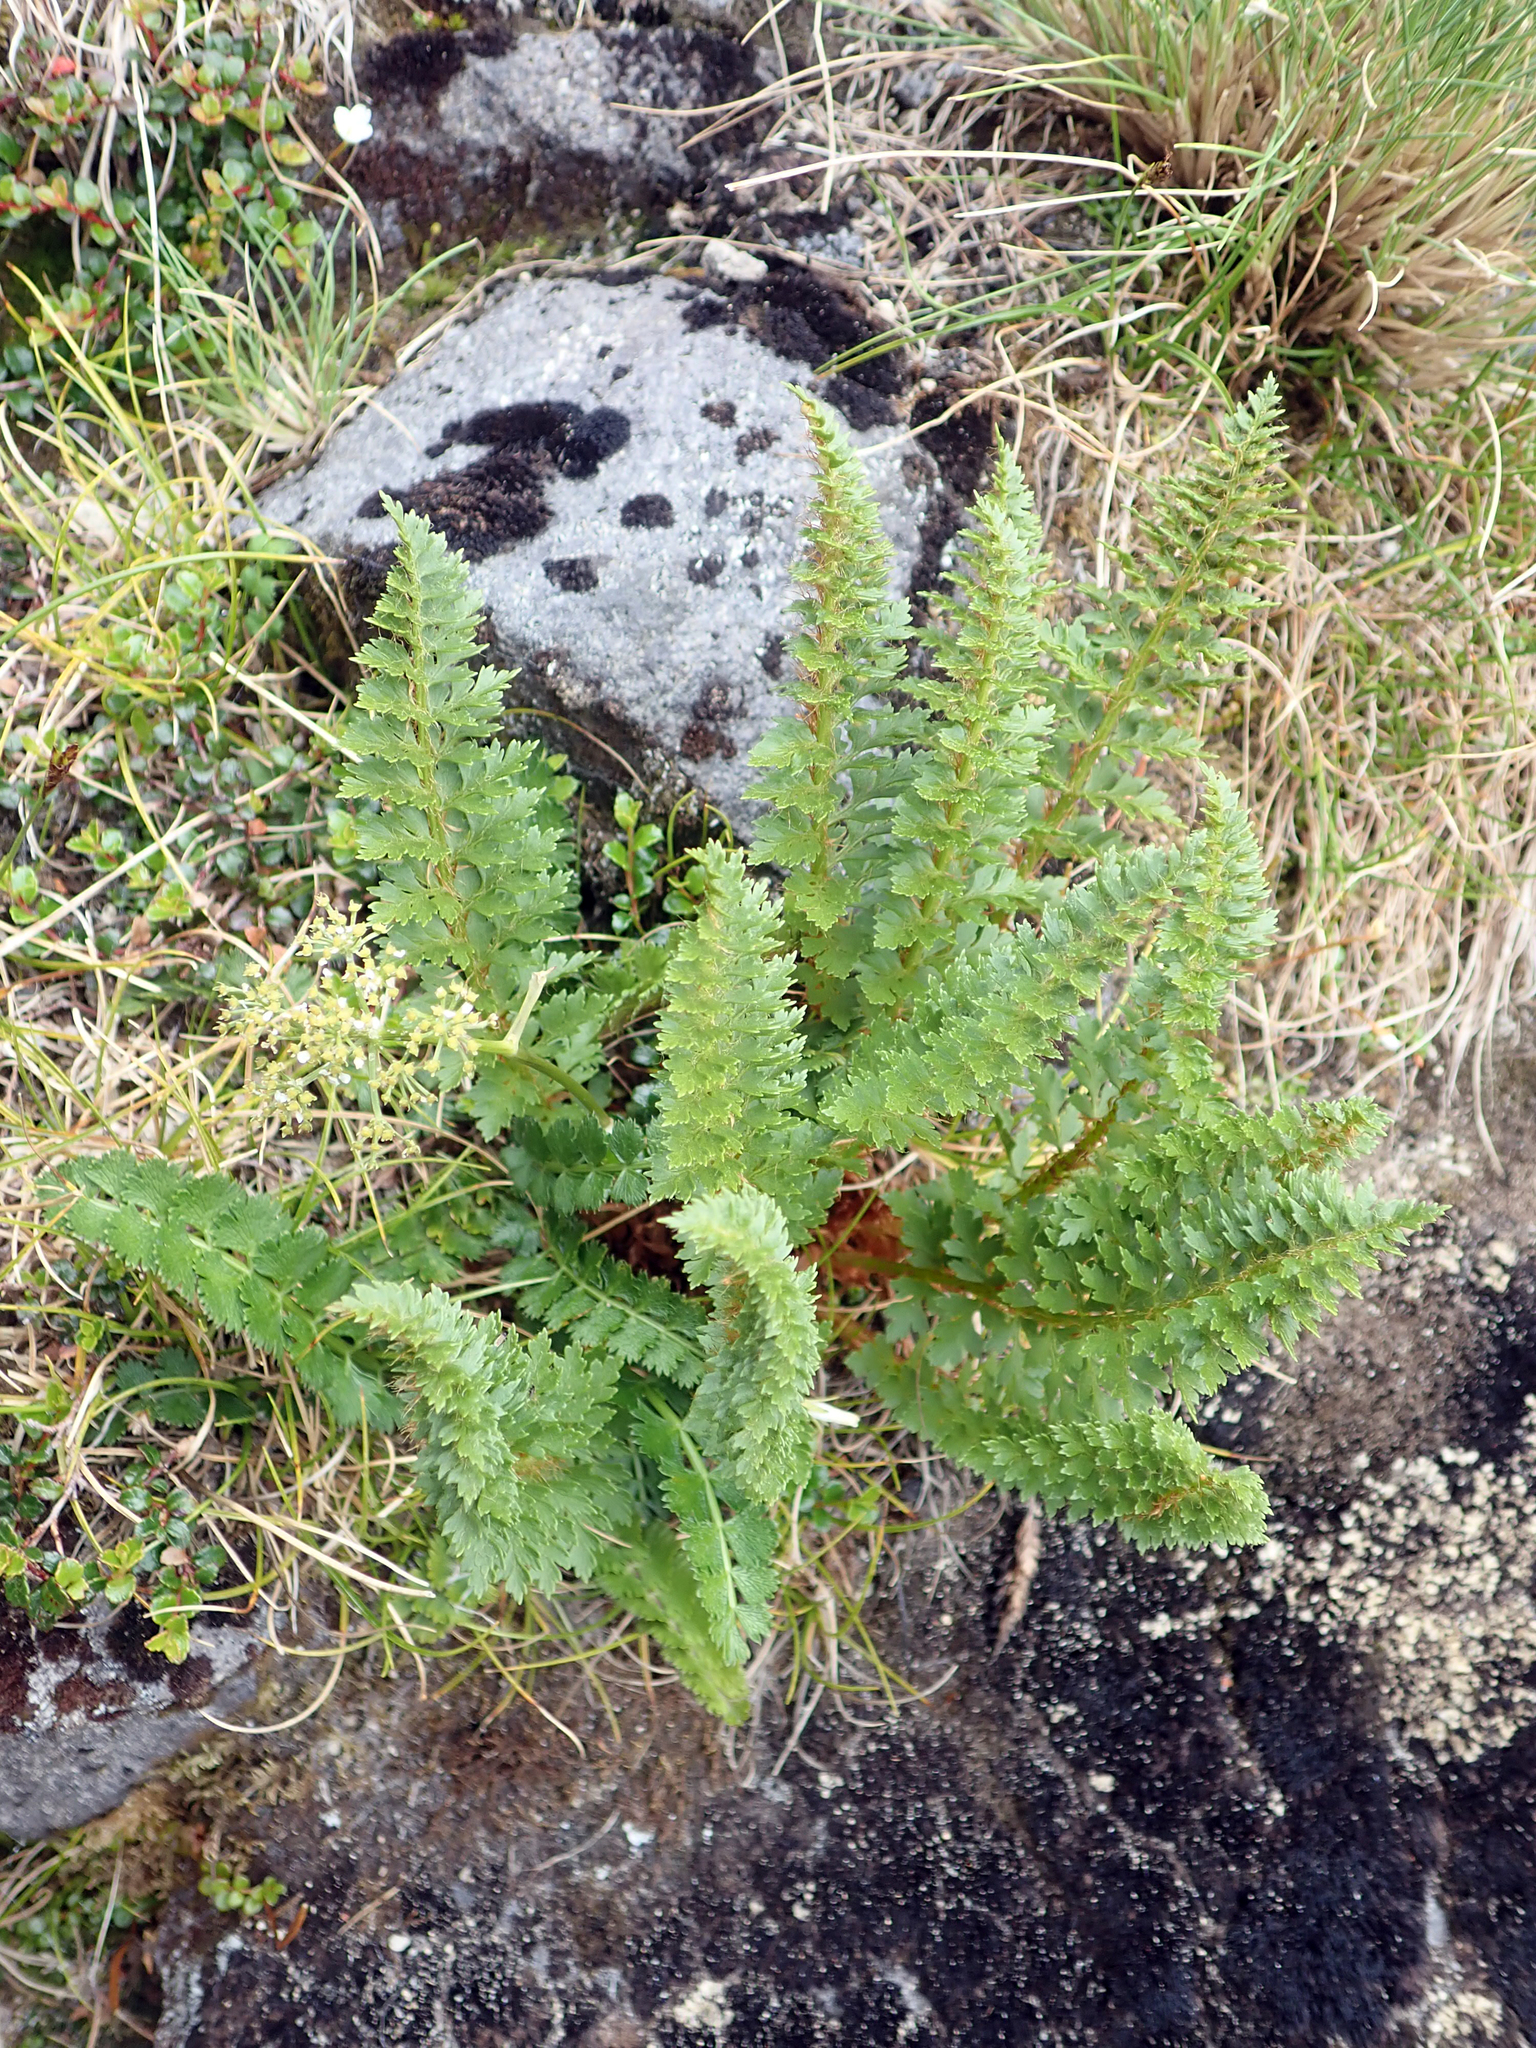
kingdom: Plantae
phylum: Tracheophyta
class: Polypodiopsida
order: Polypodiales
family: Dryopteridaceae
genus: Polystichum
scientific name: Polystichum cystostegia
